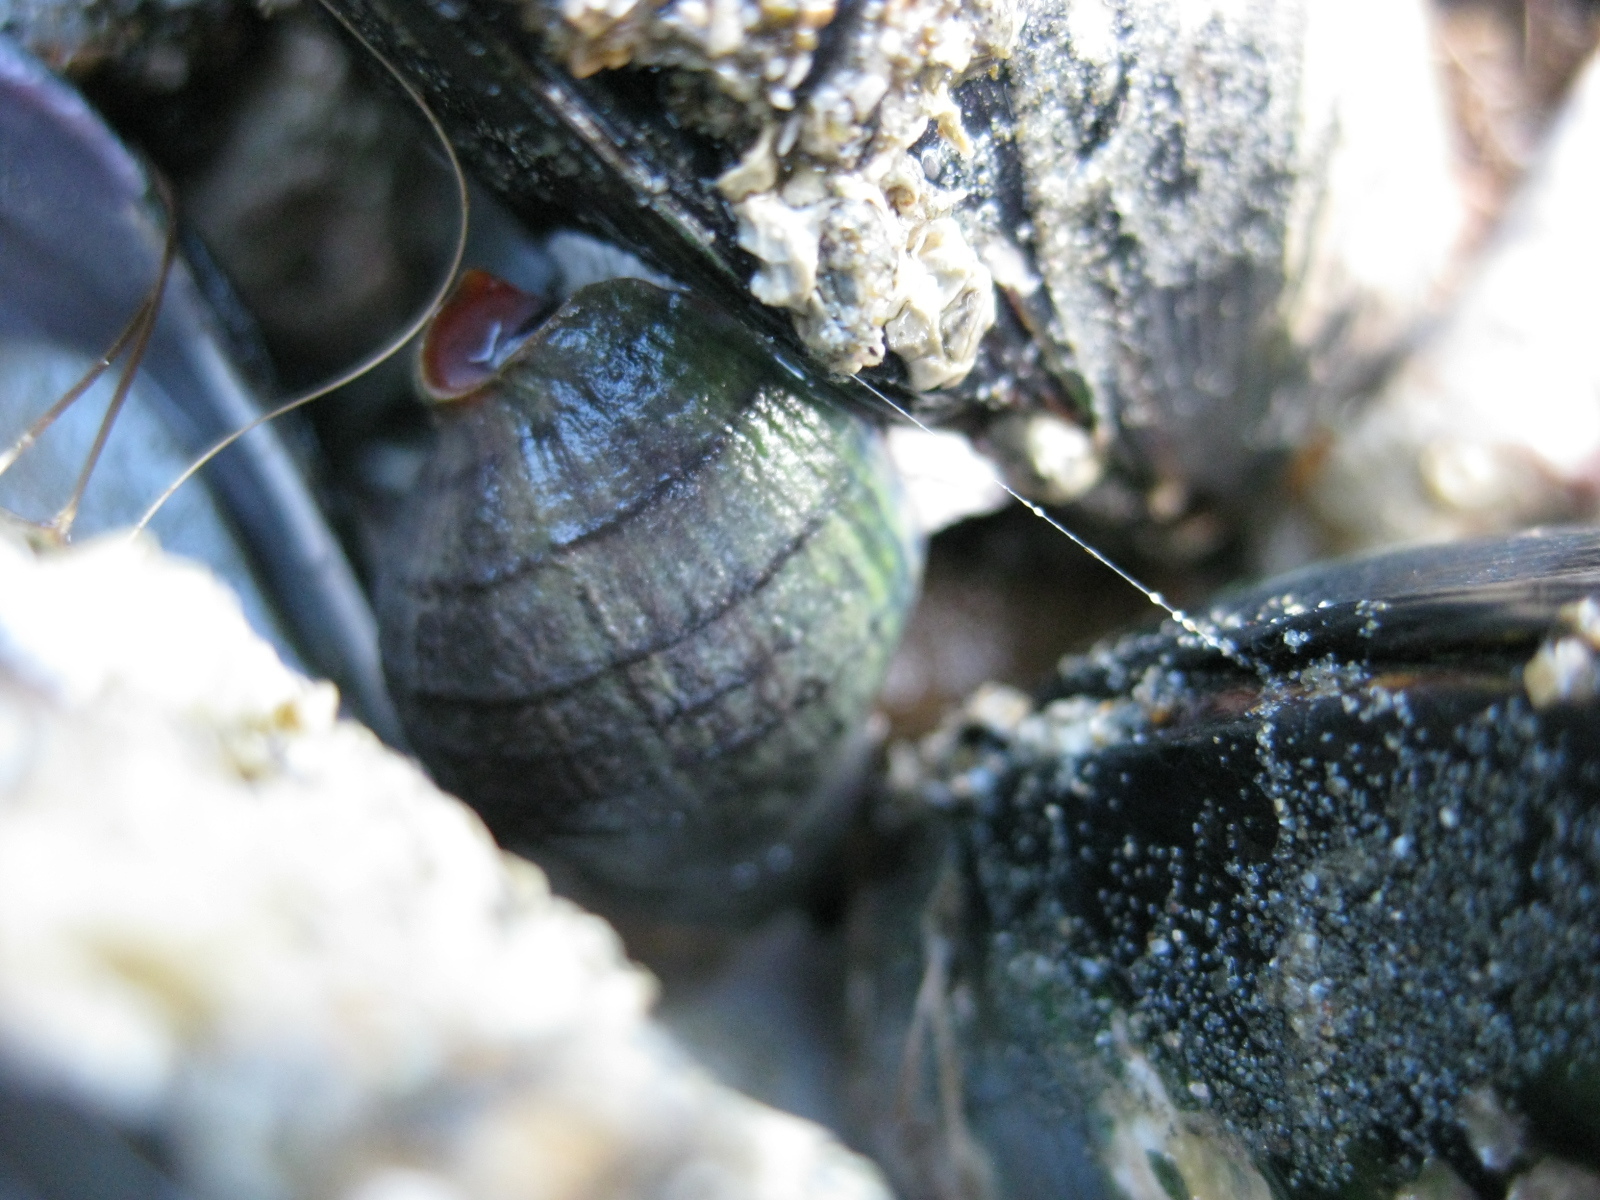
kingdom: Animalia
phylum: Mollusca
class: Gastropoda
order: Neogastropoda
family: Cominellidae
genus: Cominella
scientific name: Cominella virgata
